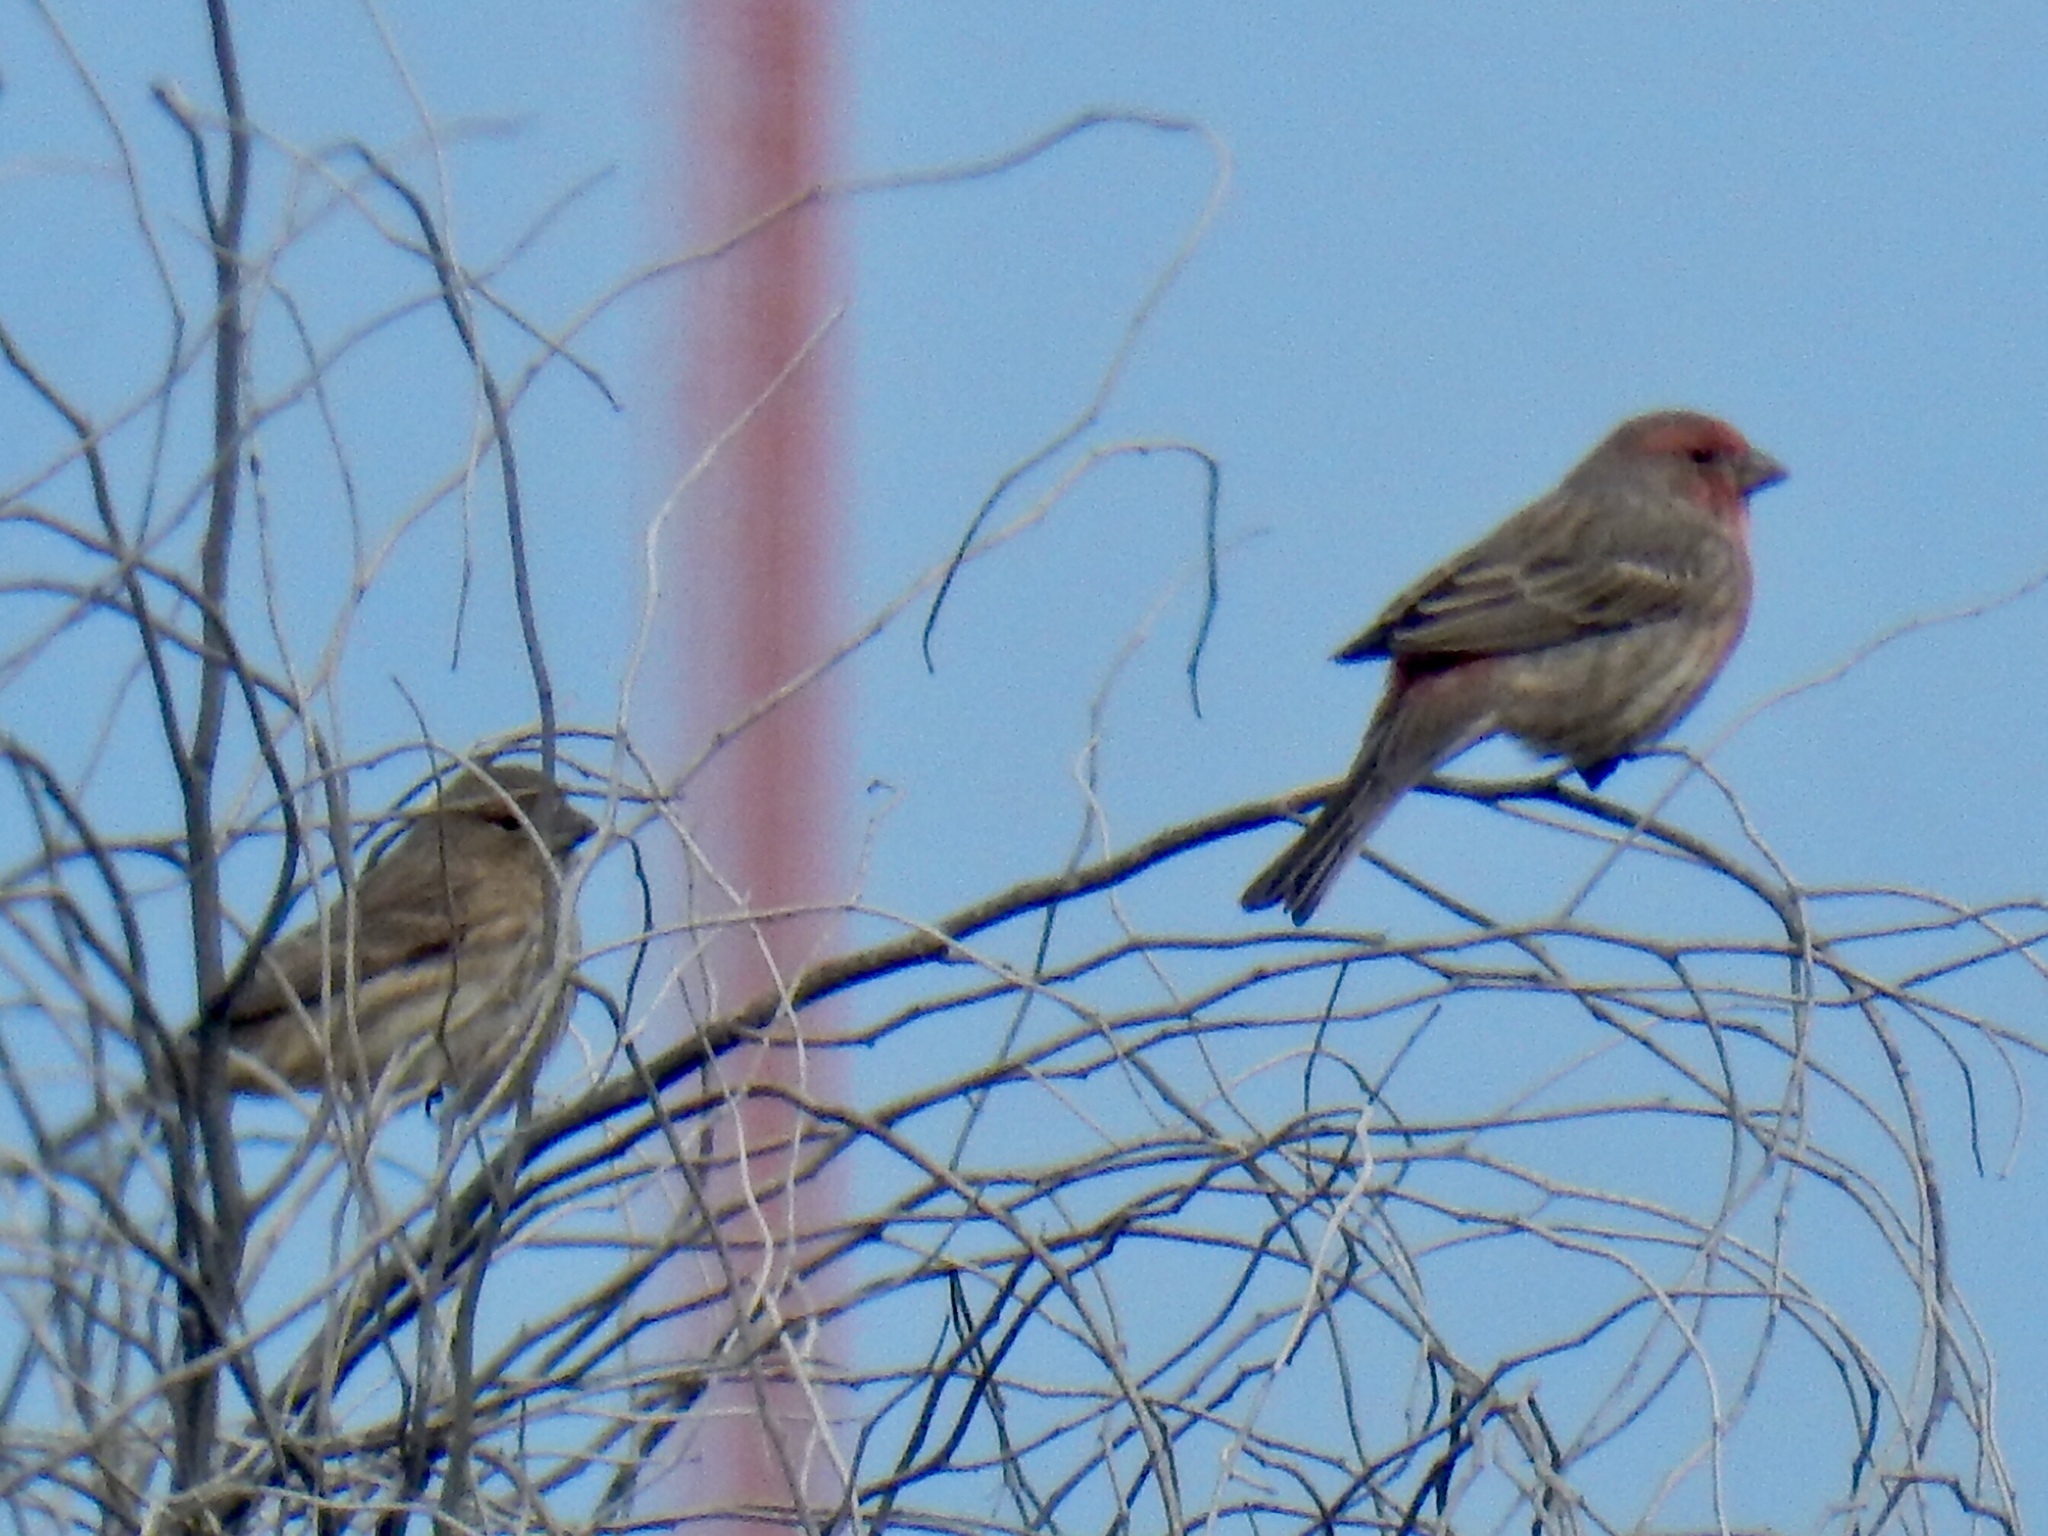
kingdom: Animalia
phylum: Chordata
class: Aves
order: Passeriformes
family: Fringillidae
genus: Haemorhous
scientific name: Haemorhous mexicanus
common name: House finch
